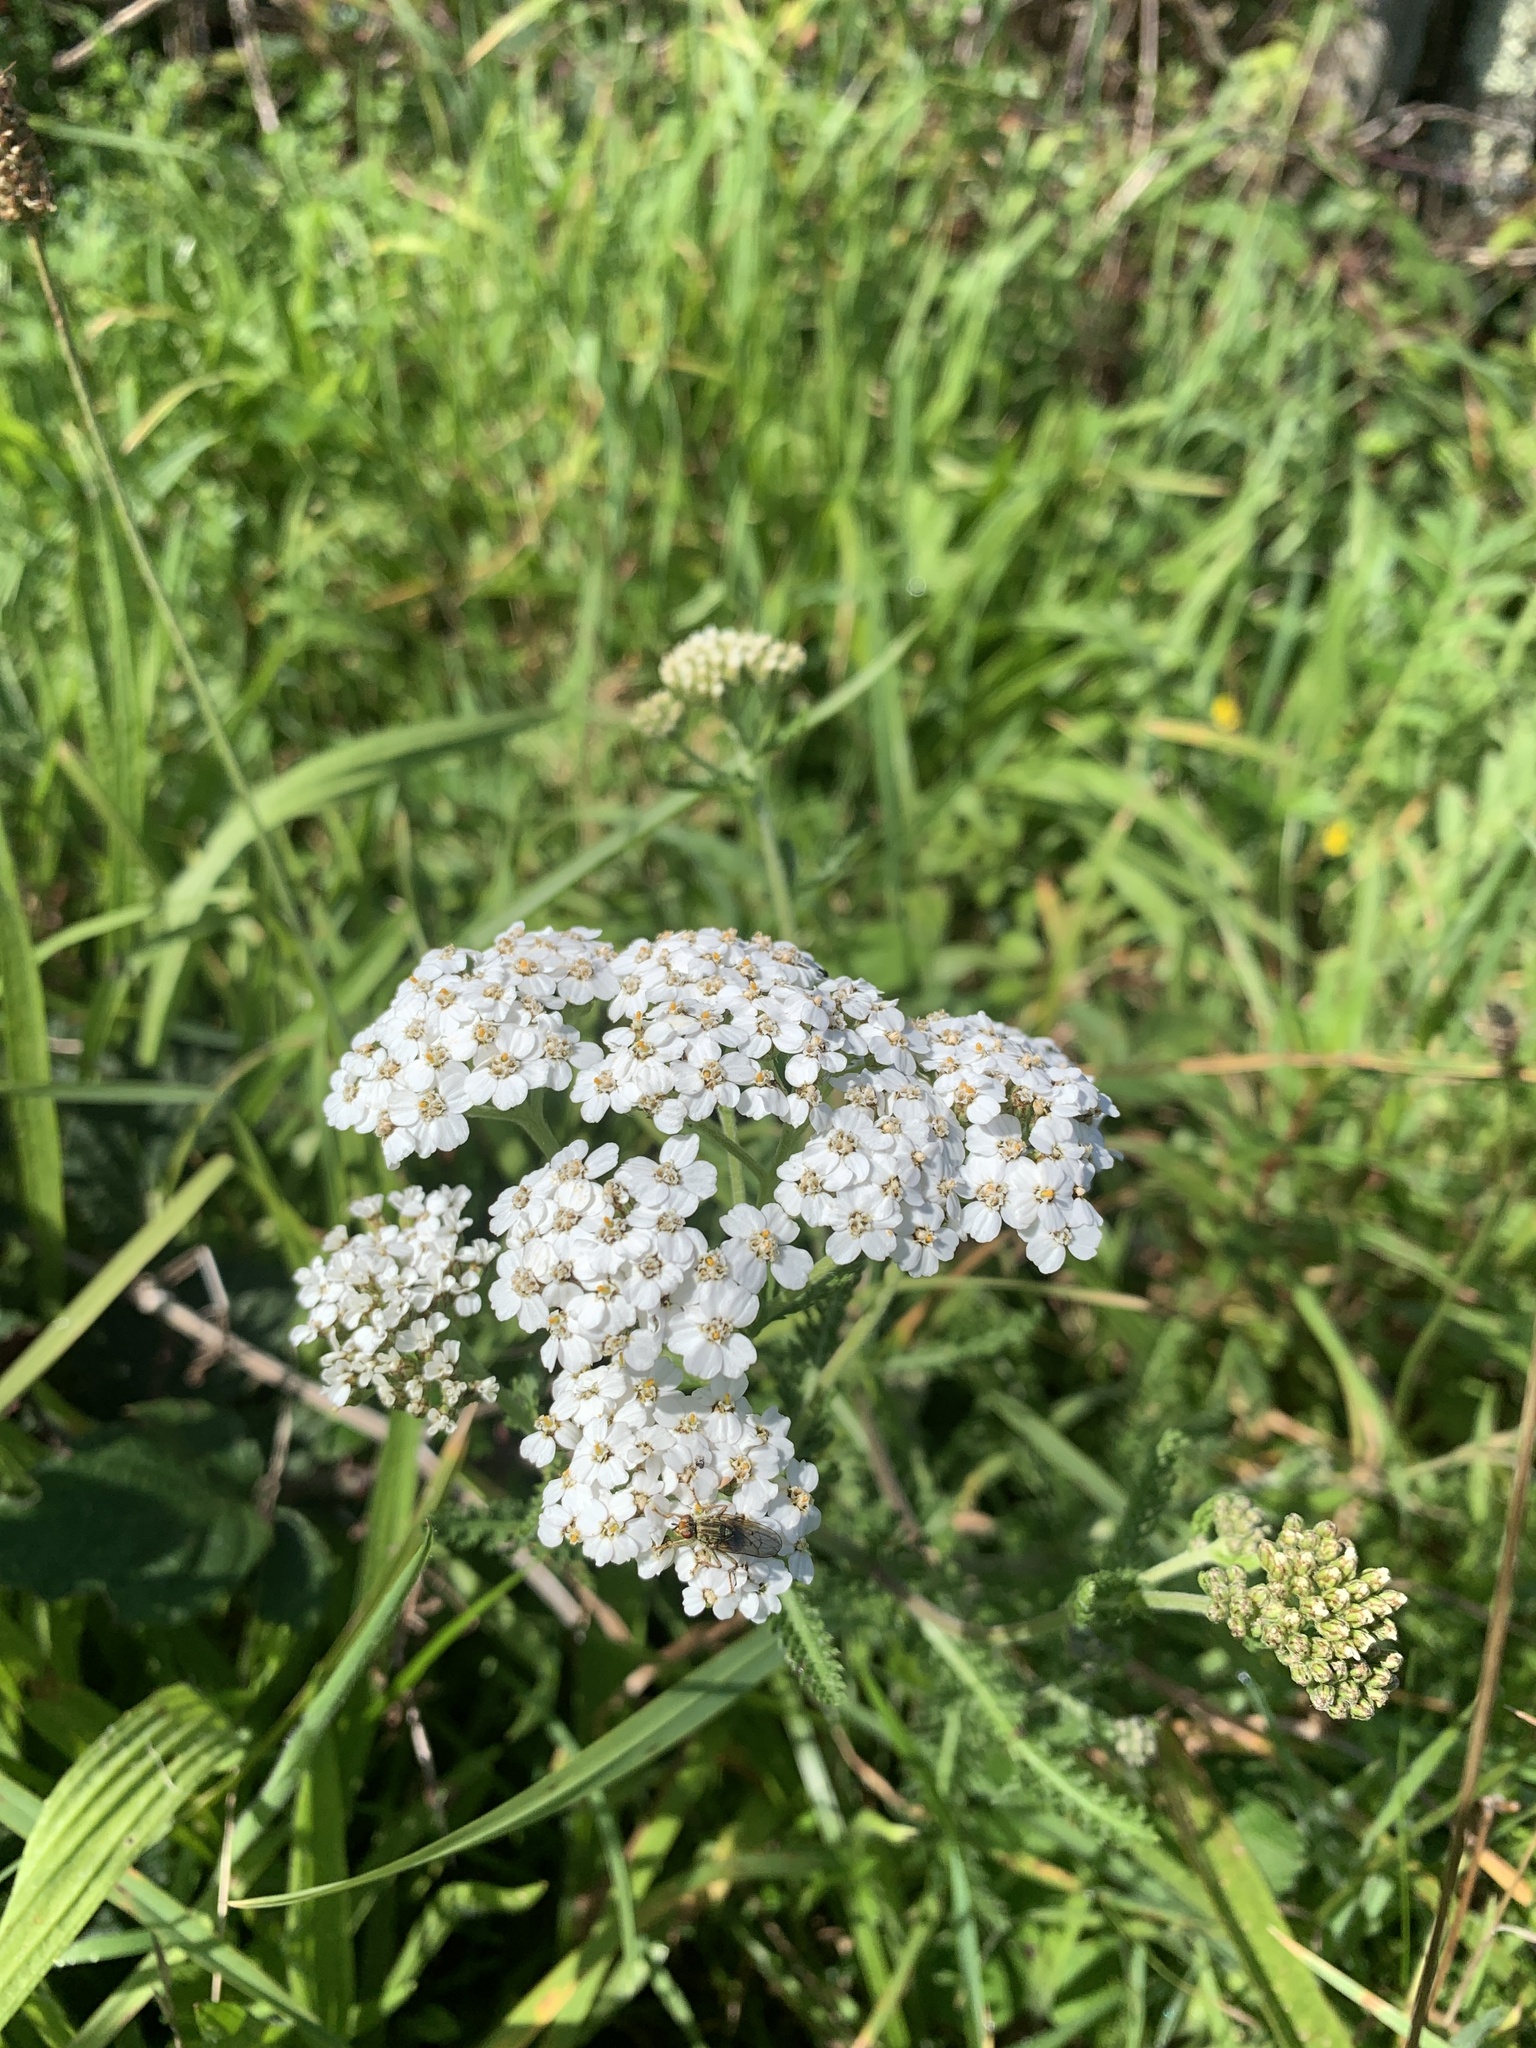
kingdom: Plantae
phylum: Tracheophyta
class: Magnoliopsida
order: Asterales
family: Asteraceae
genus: Achillea
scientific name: Achillea millefolium
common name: Yarrow
